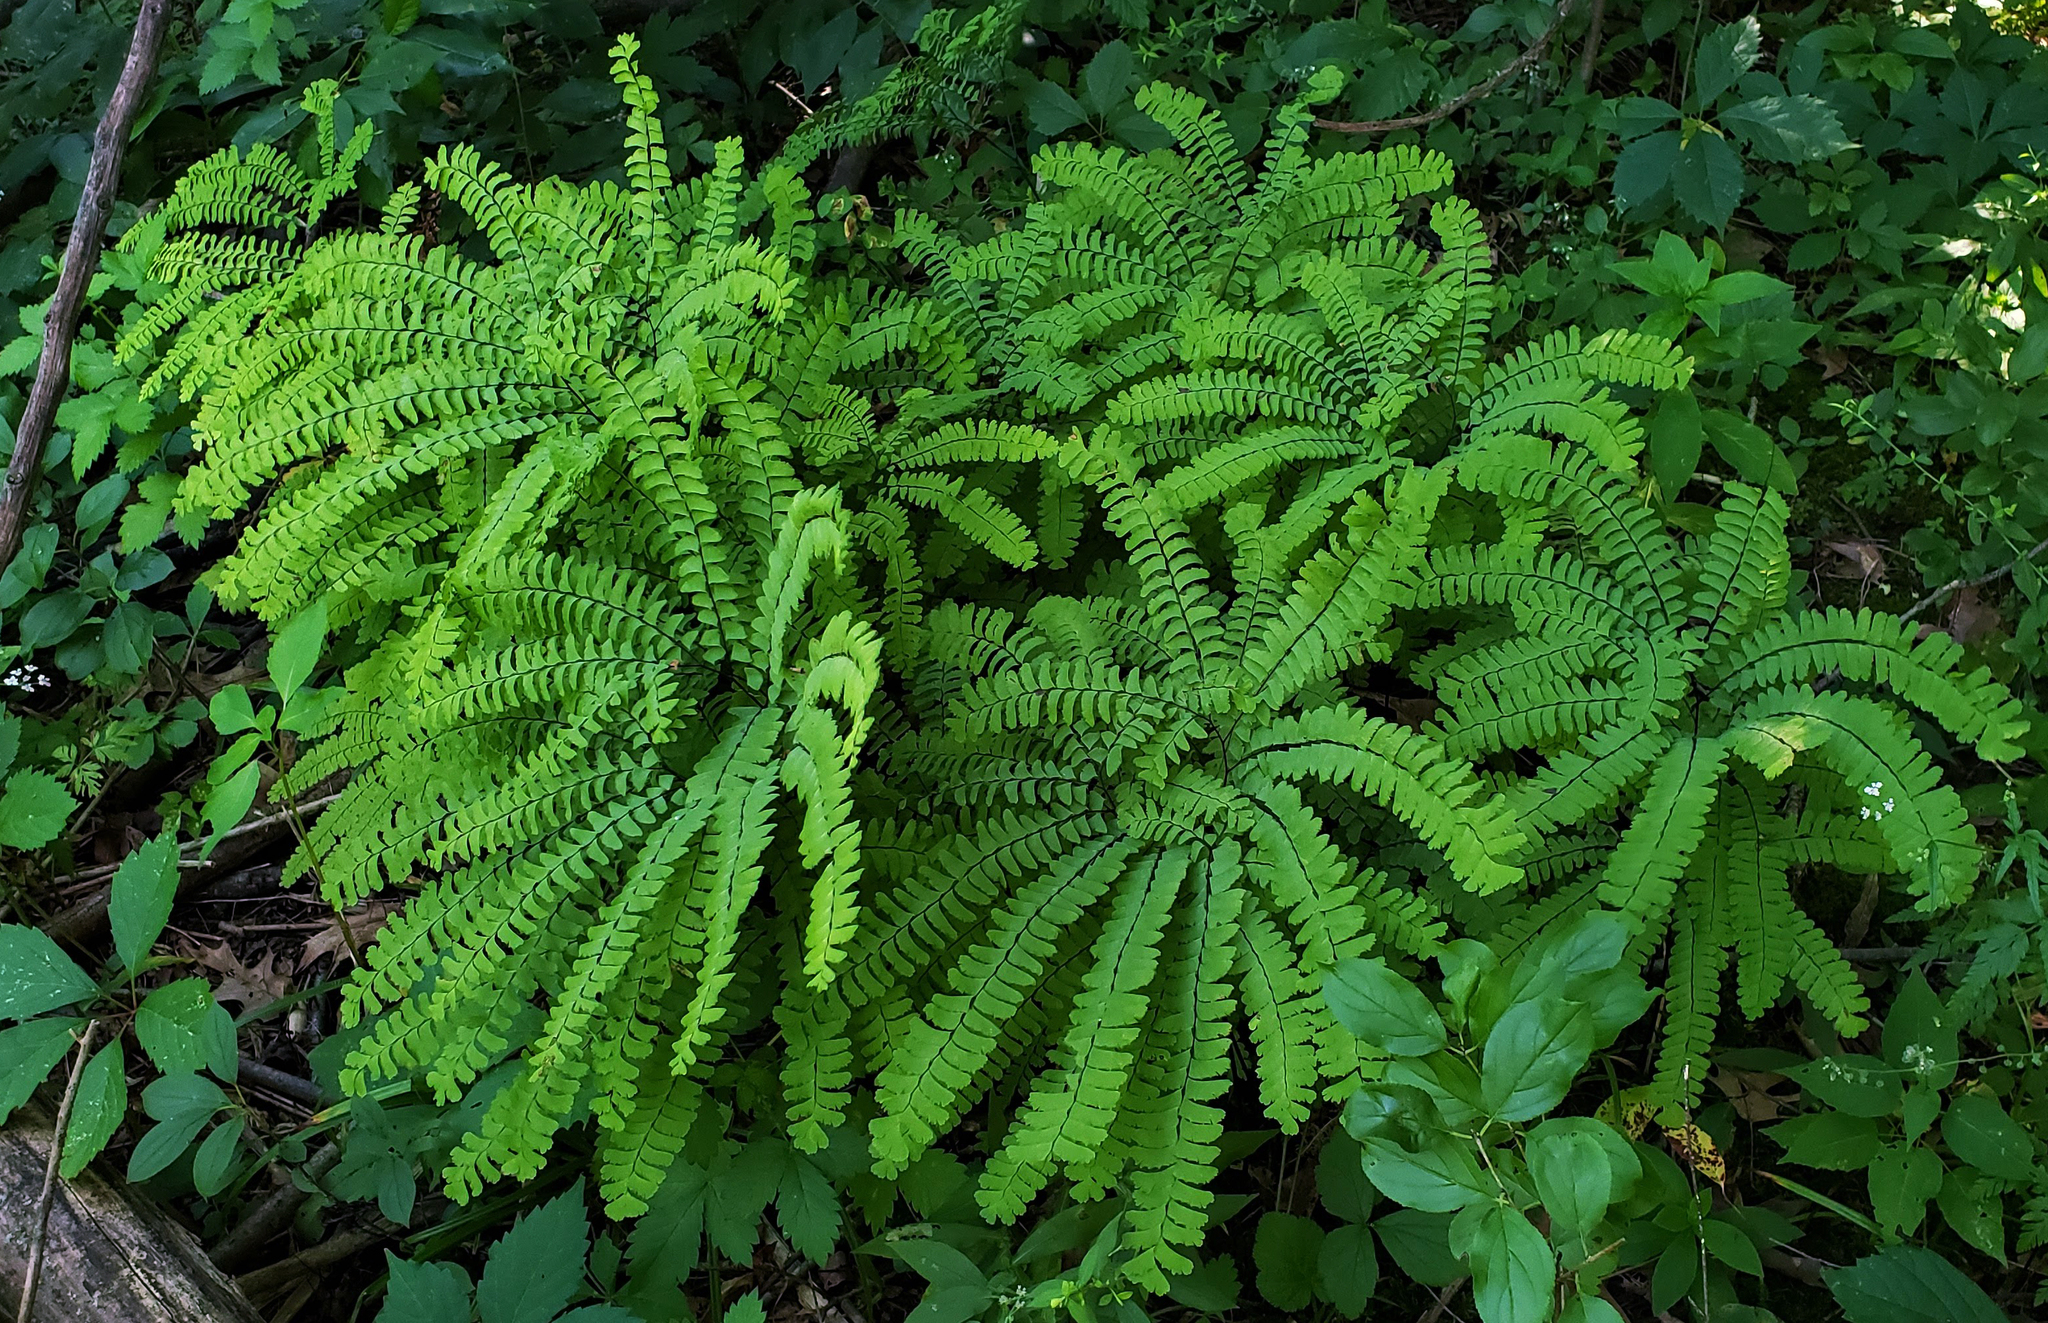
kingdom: Plantae
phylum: Tracheophyta
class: Polypodiopsida
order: Polypodiales
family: Pteridaceae
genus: Adiantum
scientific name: Adiantum pedatum
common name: Five-finger fern
